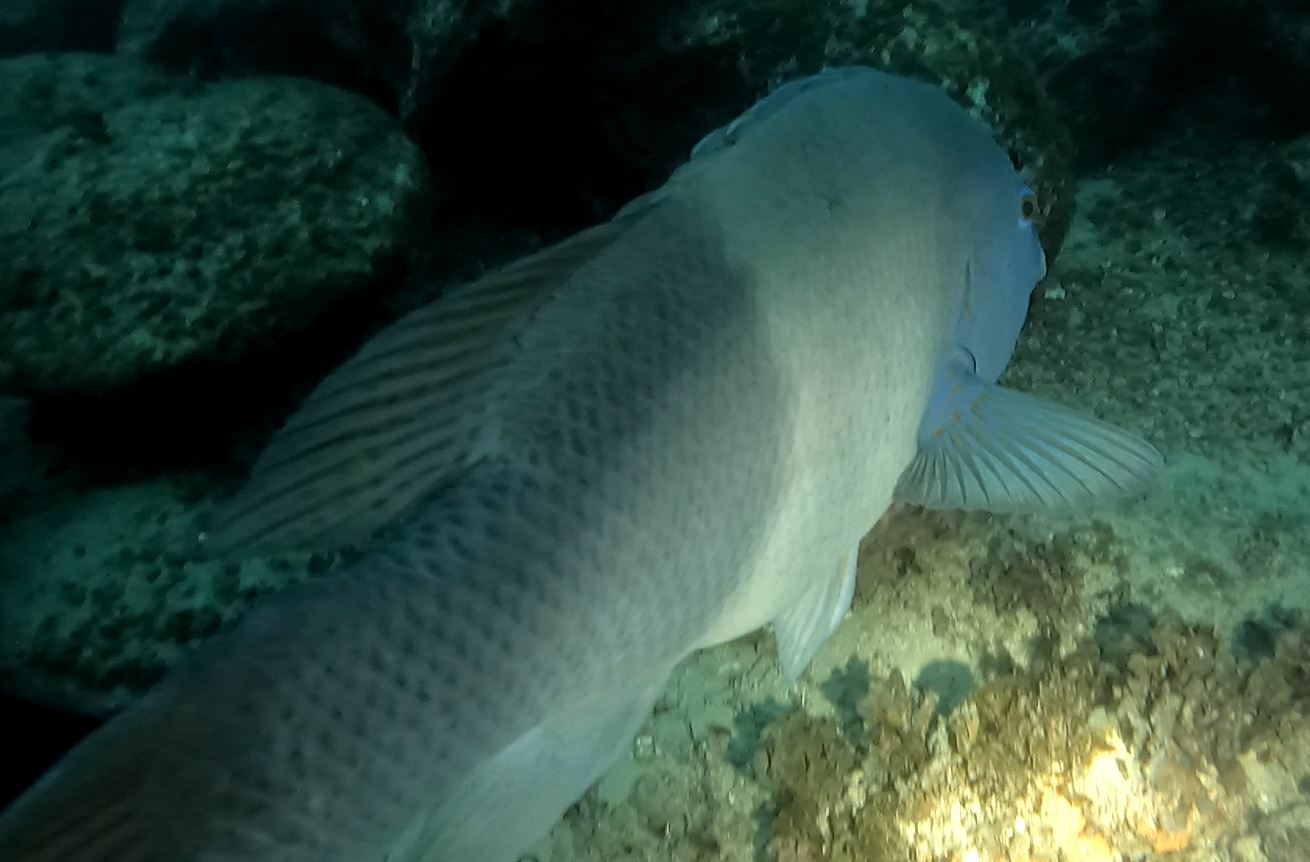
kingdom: Animalia
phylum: Chordata
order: Perciformes
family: Labridae
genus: Achoerodus
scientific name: Achoerodus viridis
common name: Brown groper
